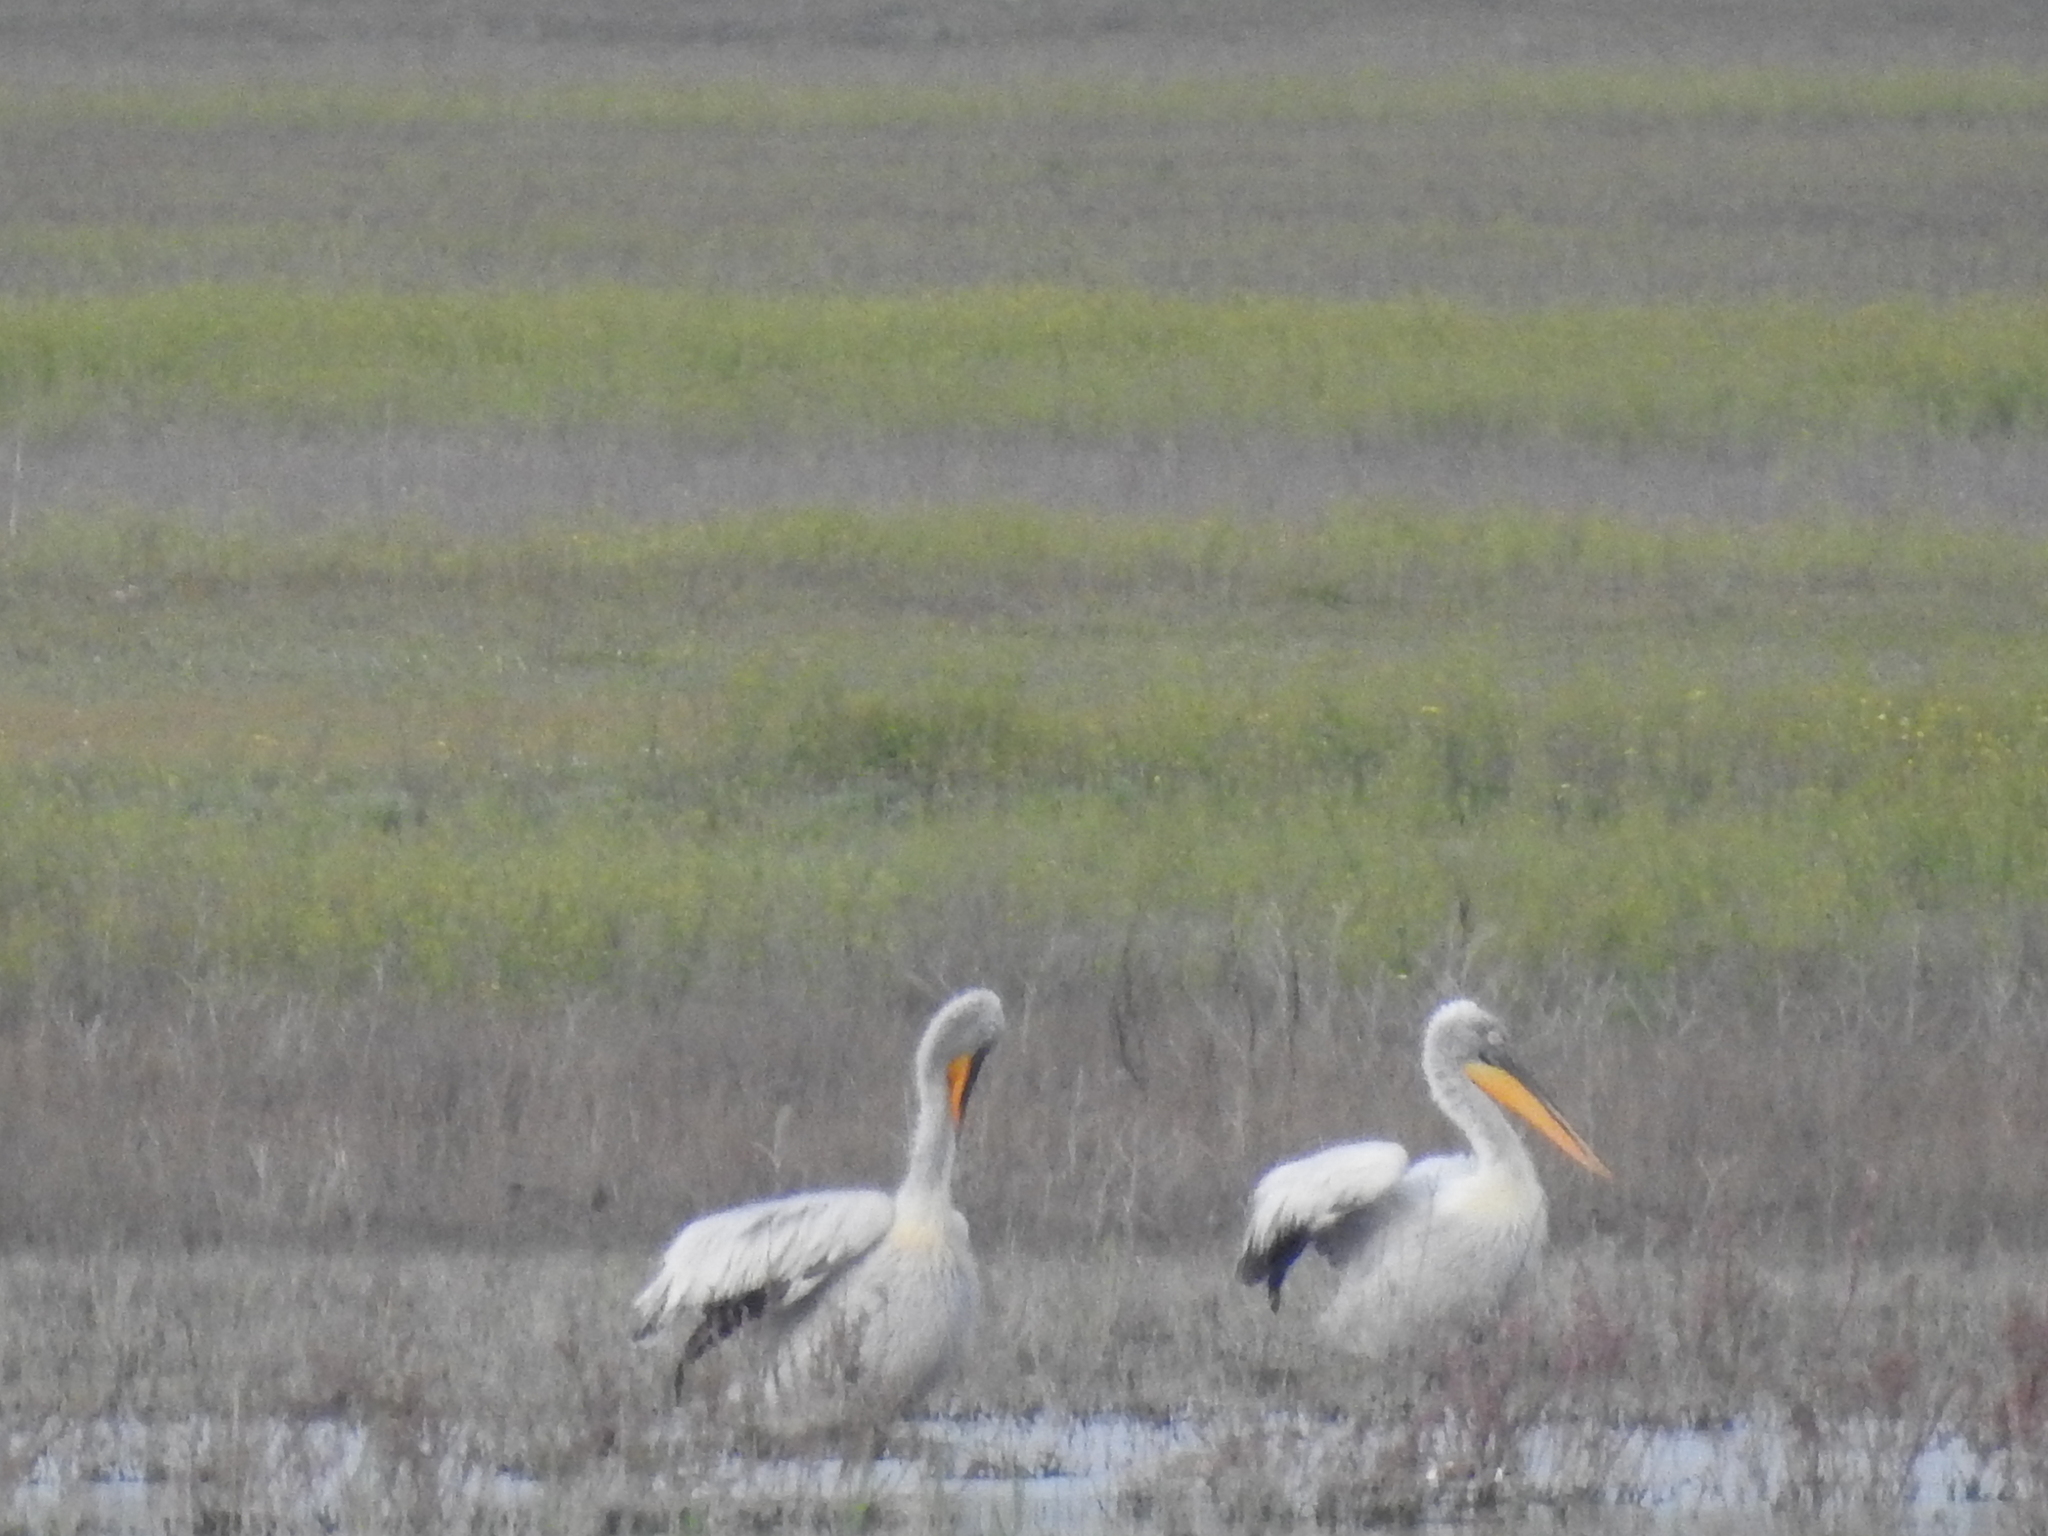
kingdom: Animalia
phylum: Chordata
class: Aves
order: Pelecaniformes
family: Pelecanidae
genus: Pelecanus
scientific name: Pelecanus crispus
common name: Dalmatian pelican
